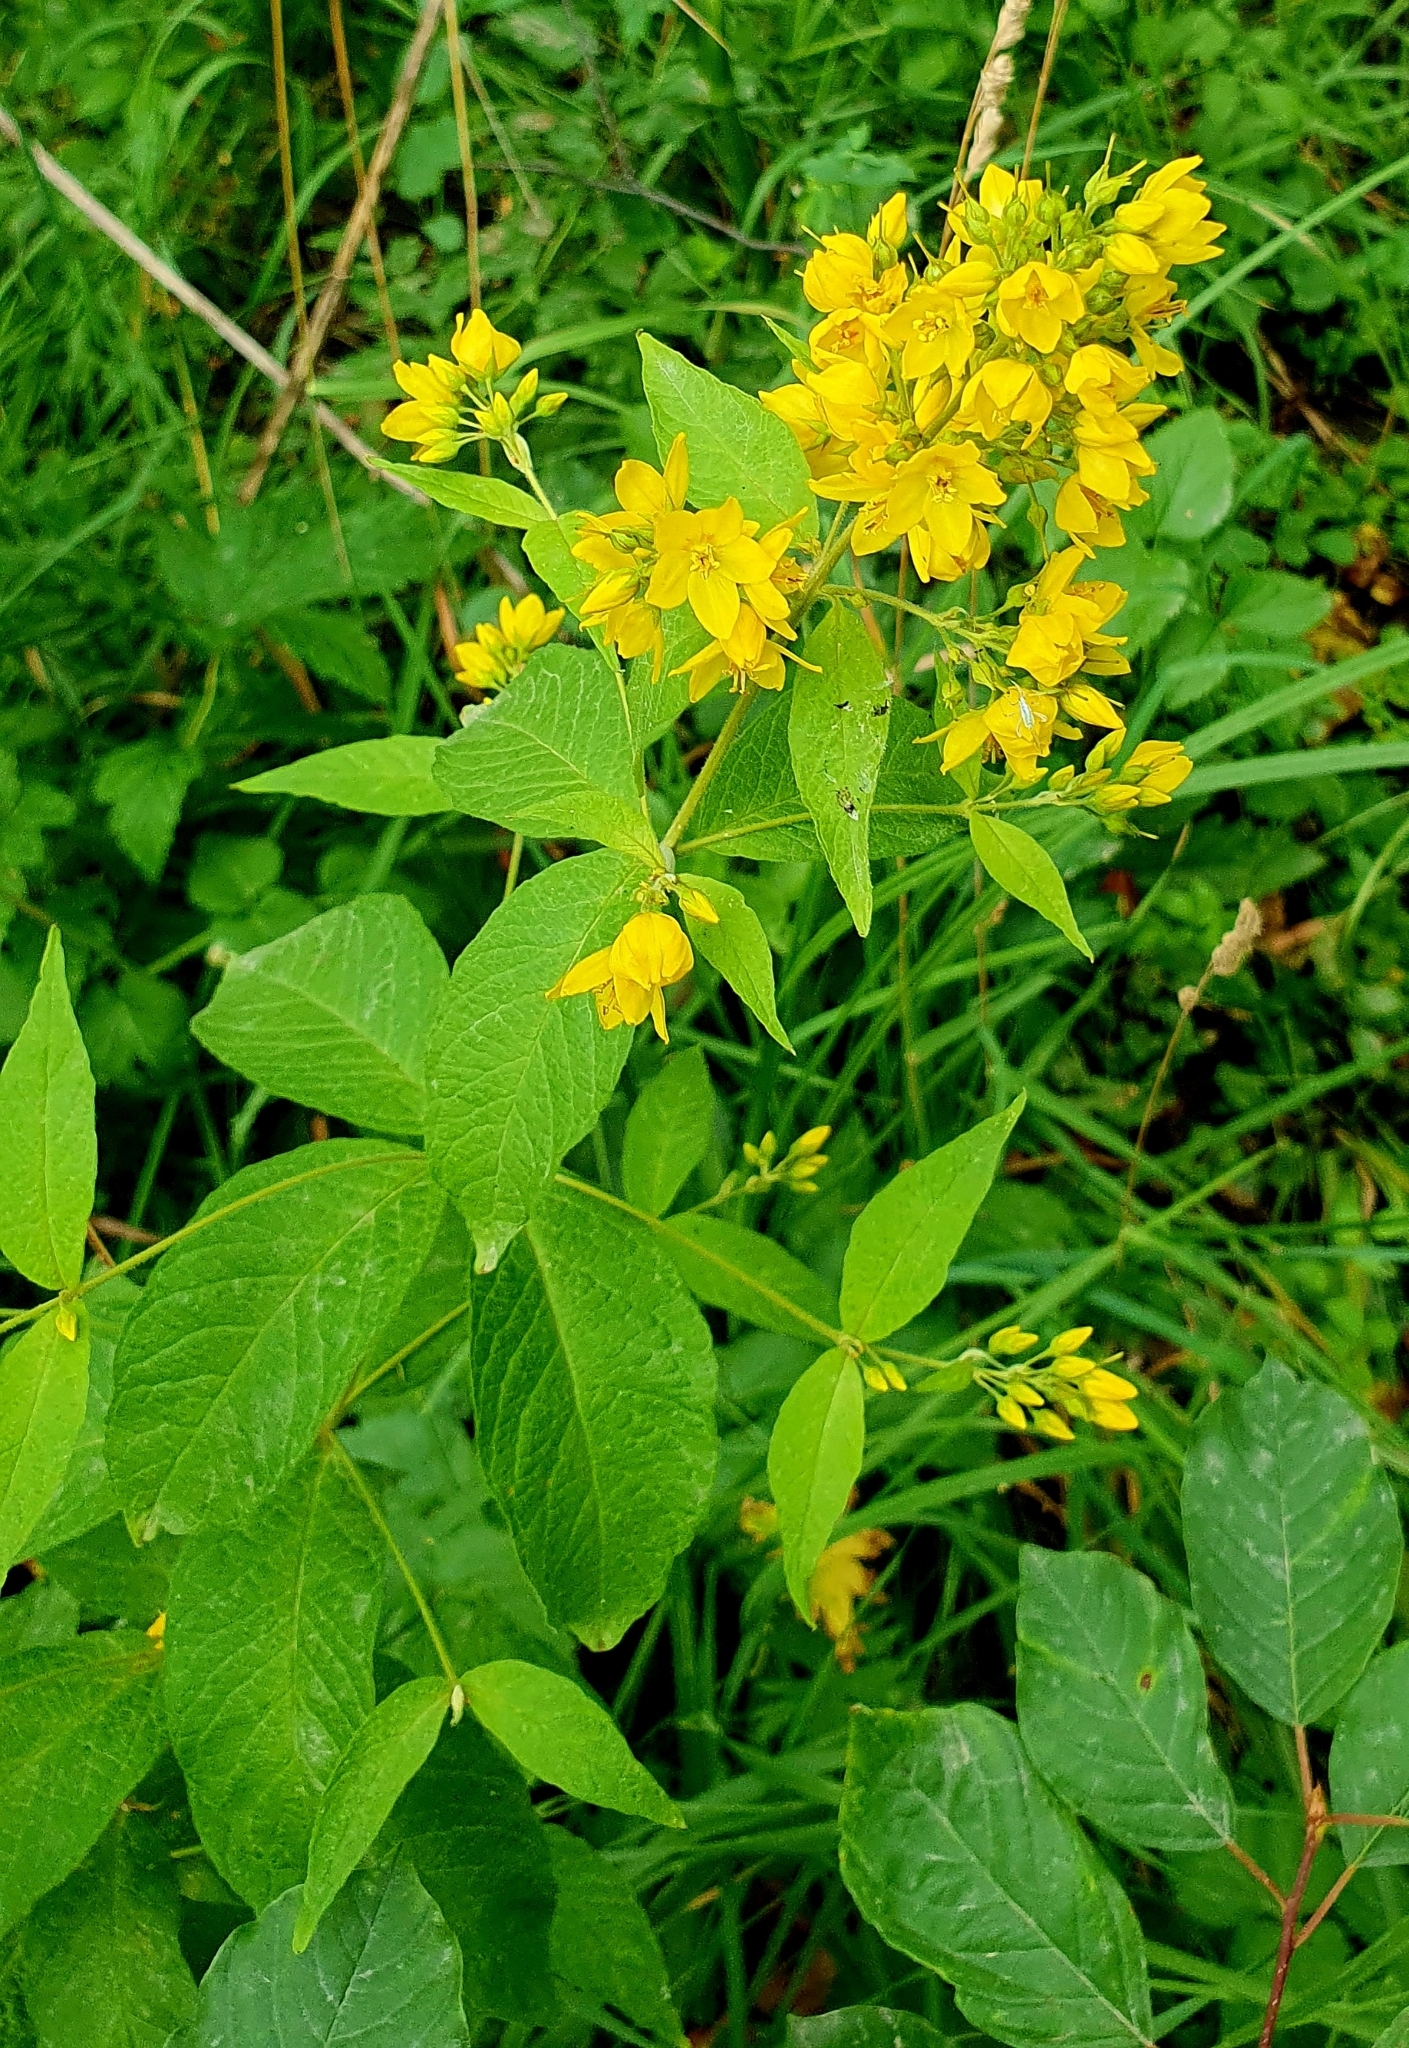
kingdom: Plantae
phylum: Tracheophyta
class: Magnoliopsida
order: Ericales
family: Primulaceae
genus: Lysimachia
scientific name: Lysimachia vulgaris
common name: Yellow loosestrife
